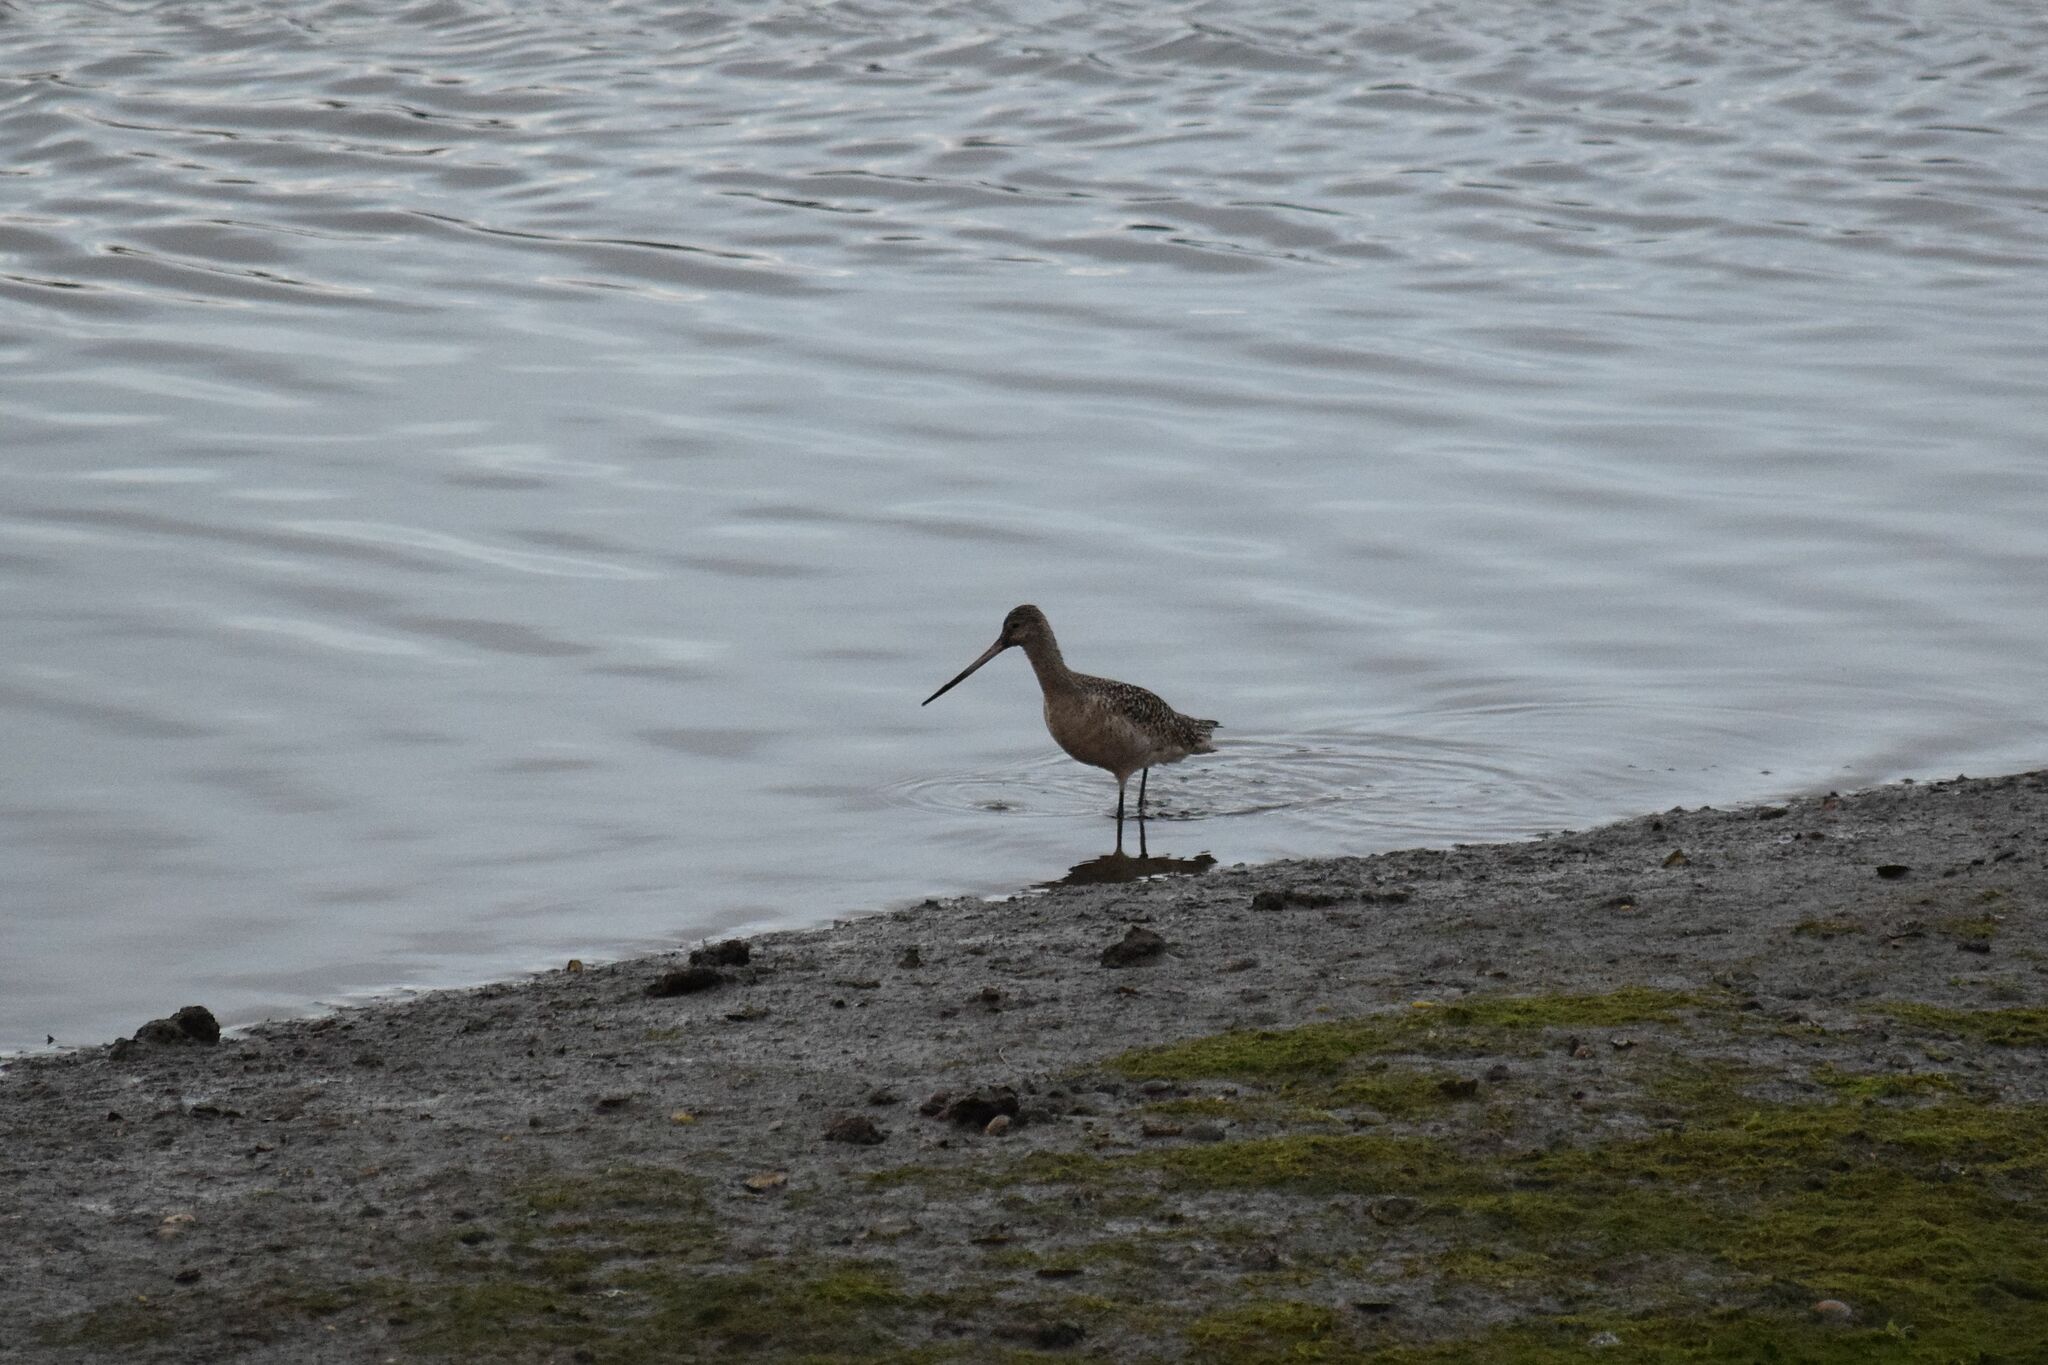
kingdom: Animalia
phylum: Chordata
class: Aves
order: Charadriiformes
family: Scolopacidae
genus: Limosa
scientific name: Limosa fedoa
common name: Marbled godwit
